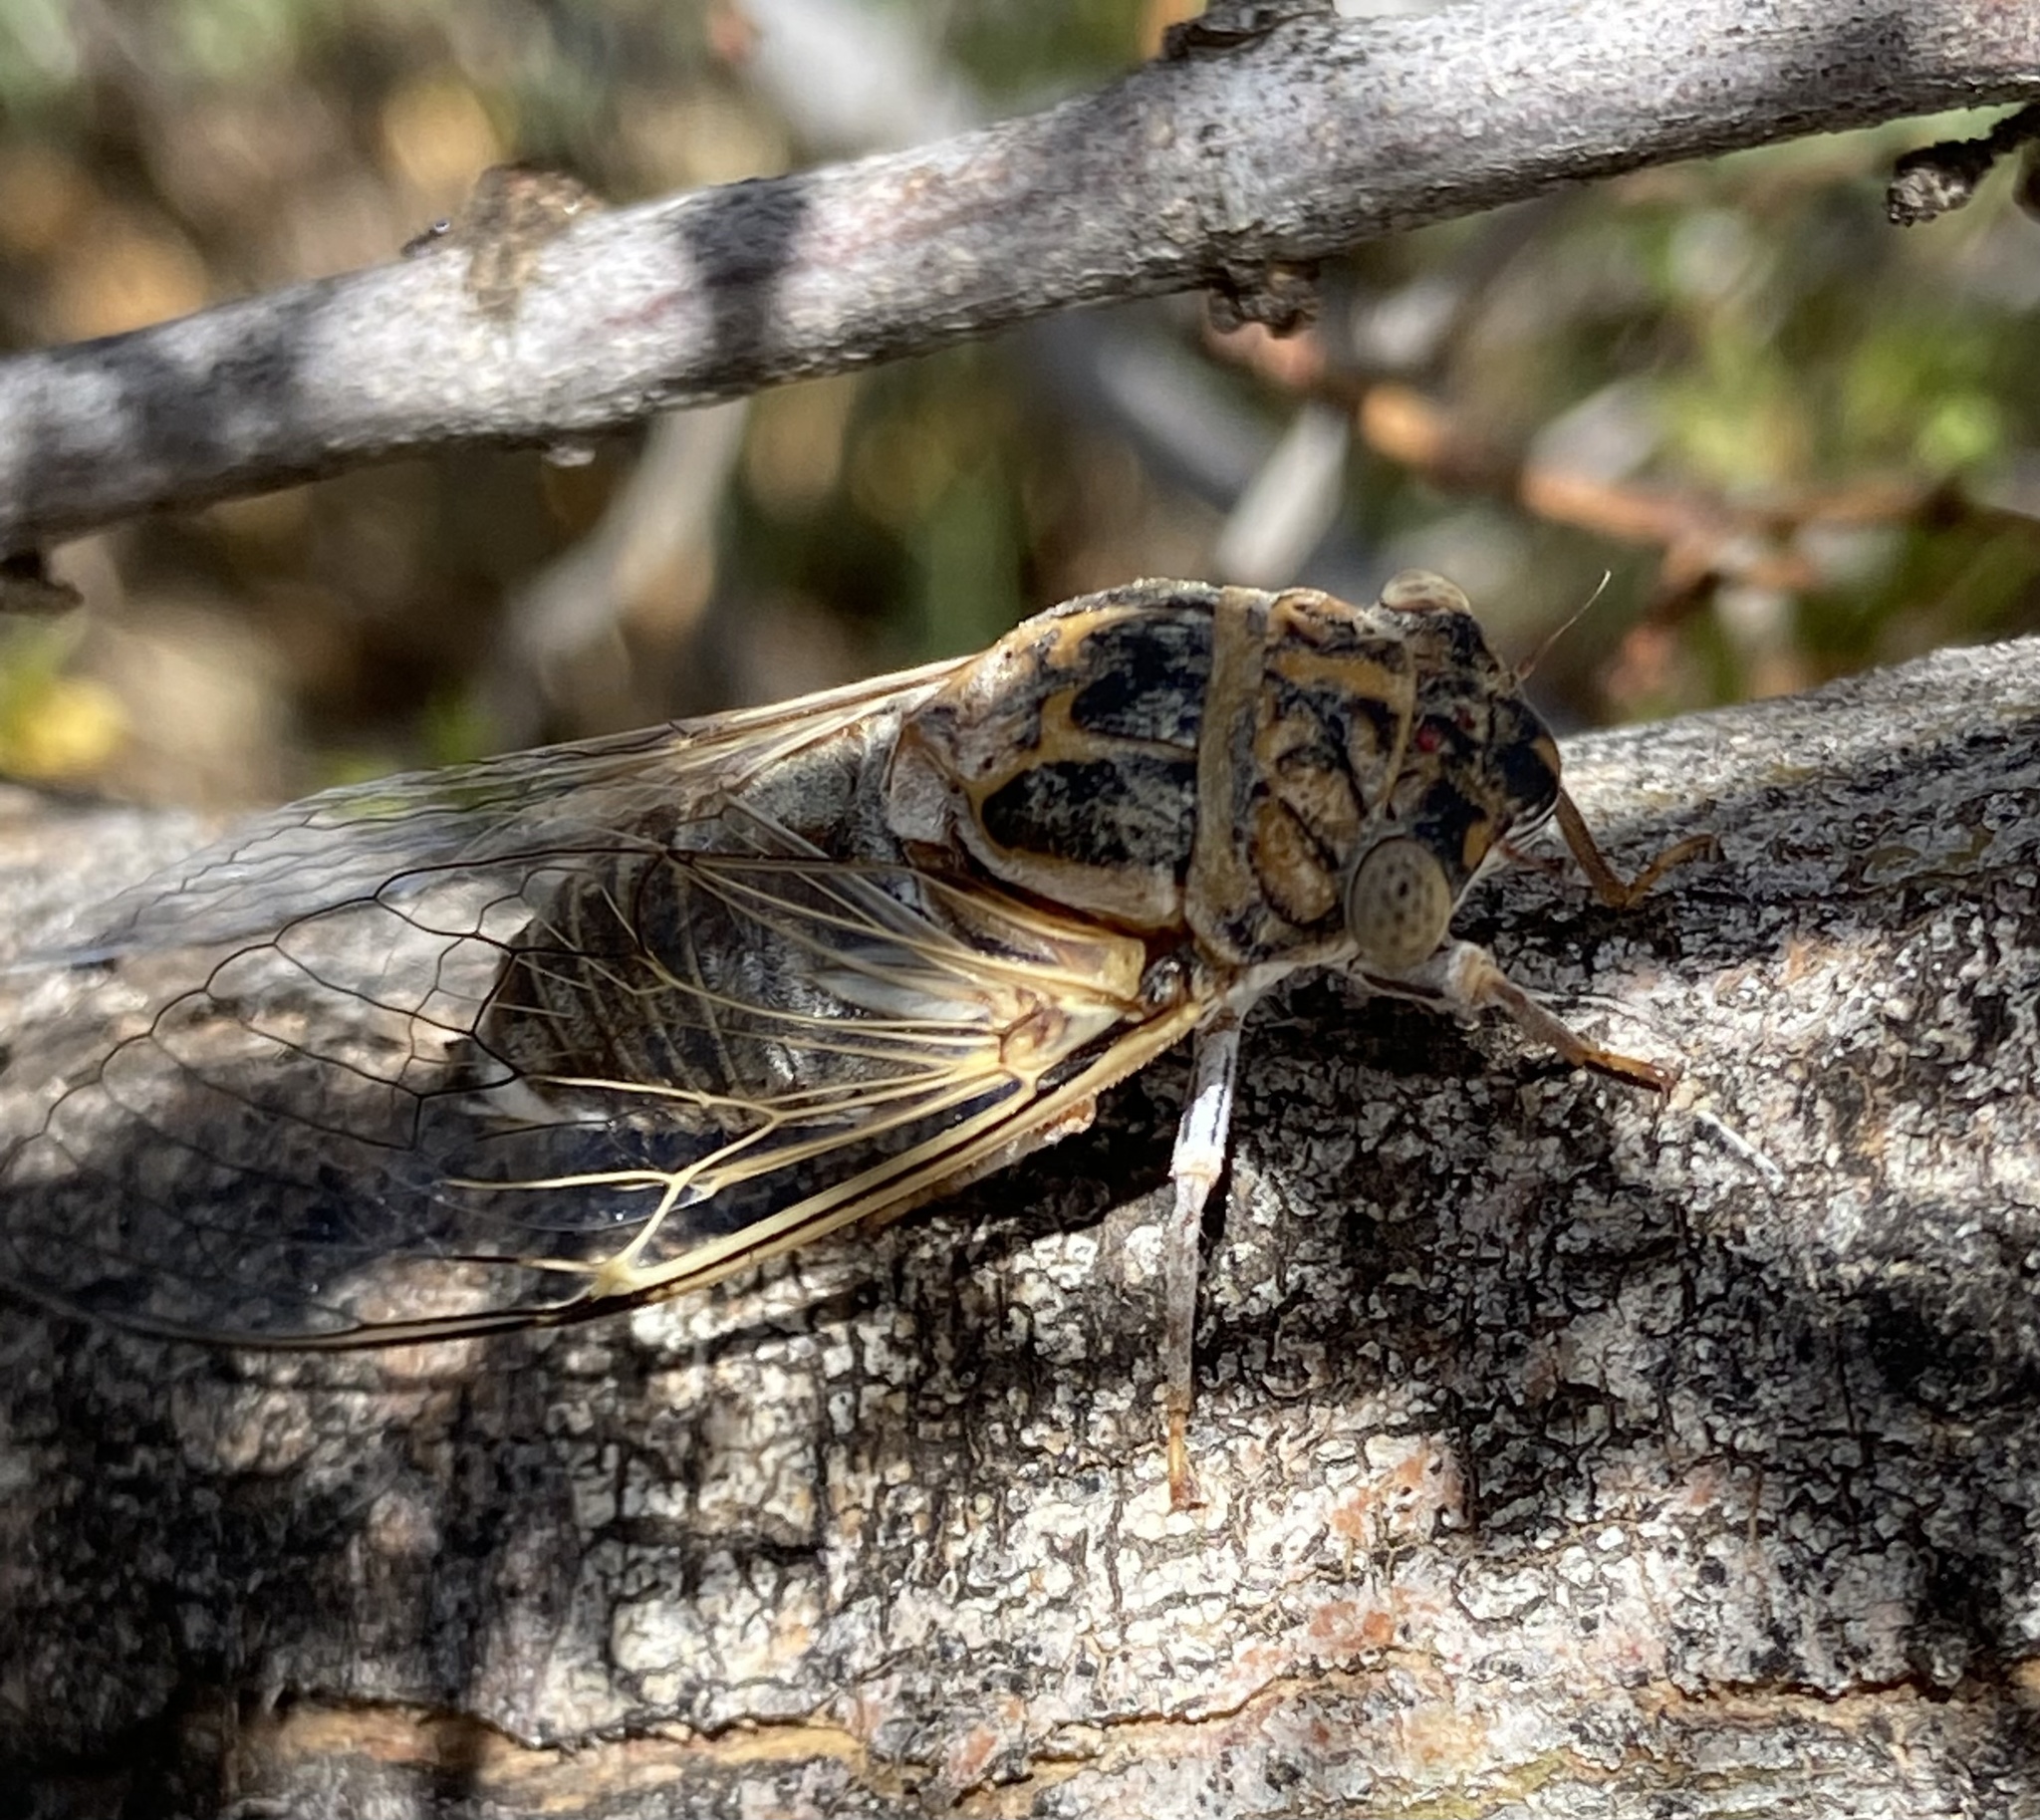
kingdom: Animalia
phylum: Arthropoda
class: Insecta
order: Hemiptera
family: Cicadidae
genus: Diceroprocta
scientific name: Diceroprocta eugraphica
